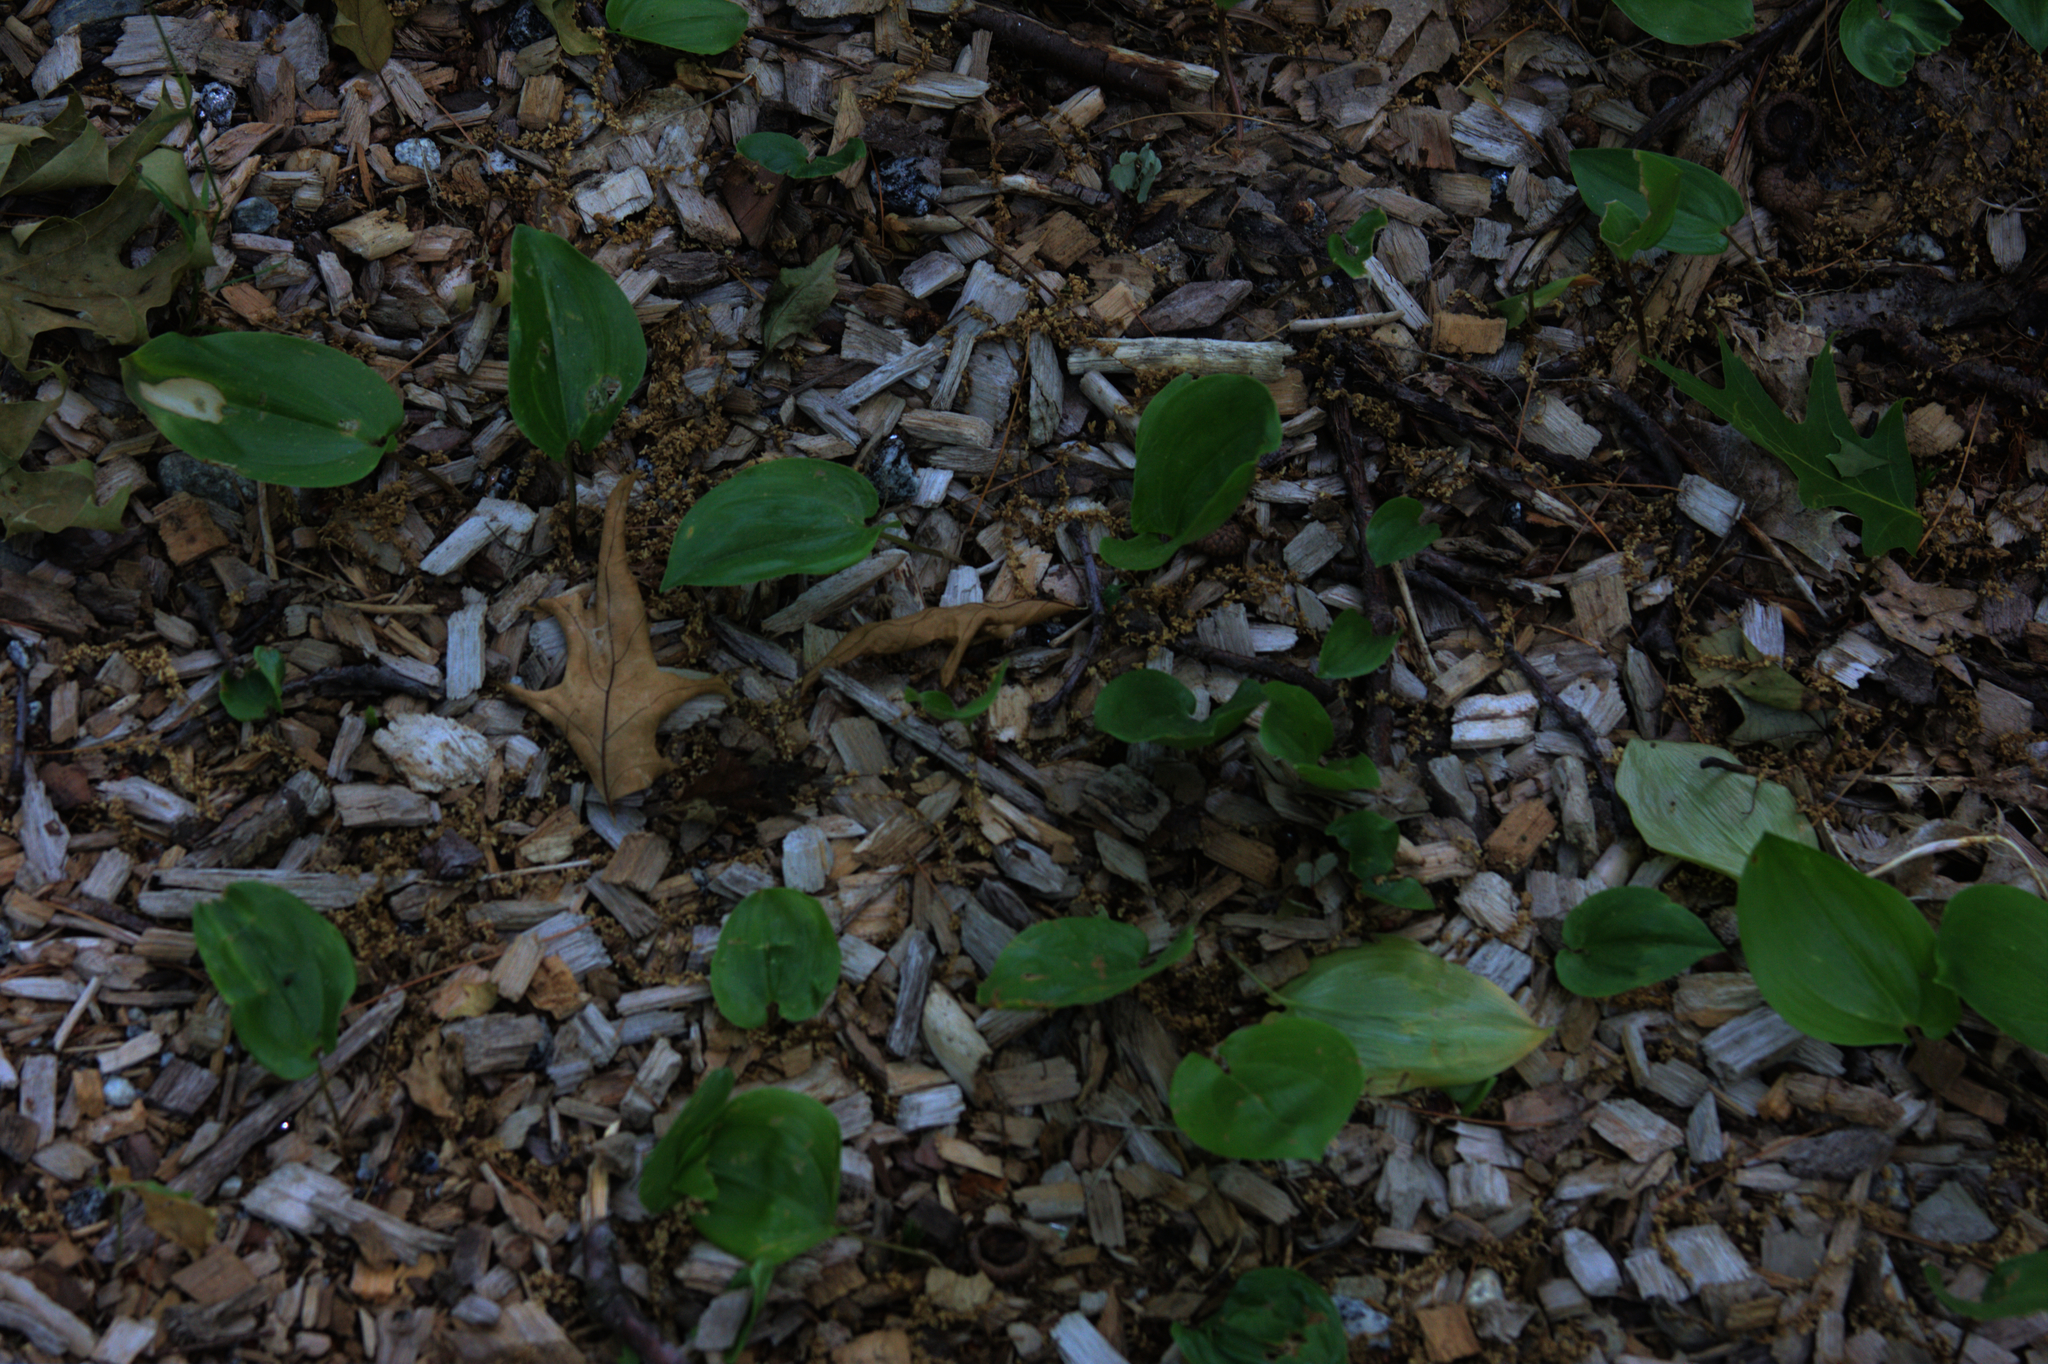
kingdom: Plantae
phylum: Tracheophyta
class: Liliopsida
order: Asparagales
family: Asparagaceae
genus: Maianthemum
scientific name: Maianthemum canadense
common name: False lily-of-the-valley
